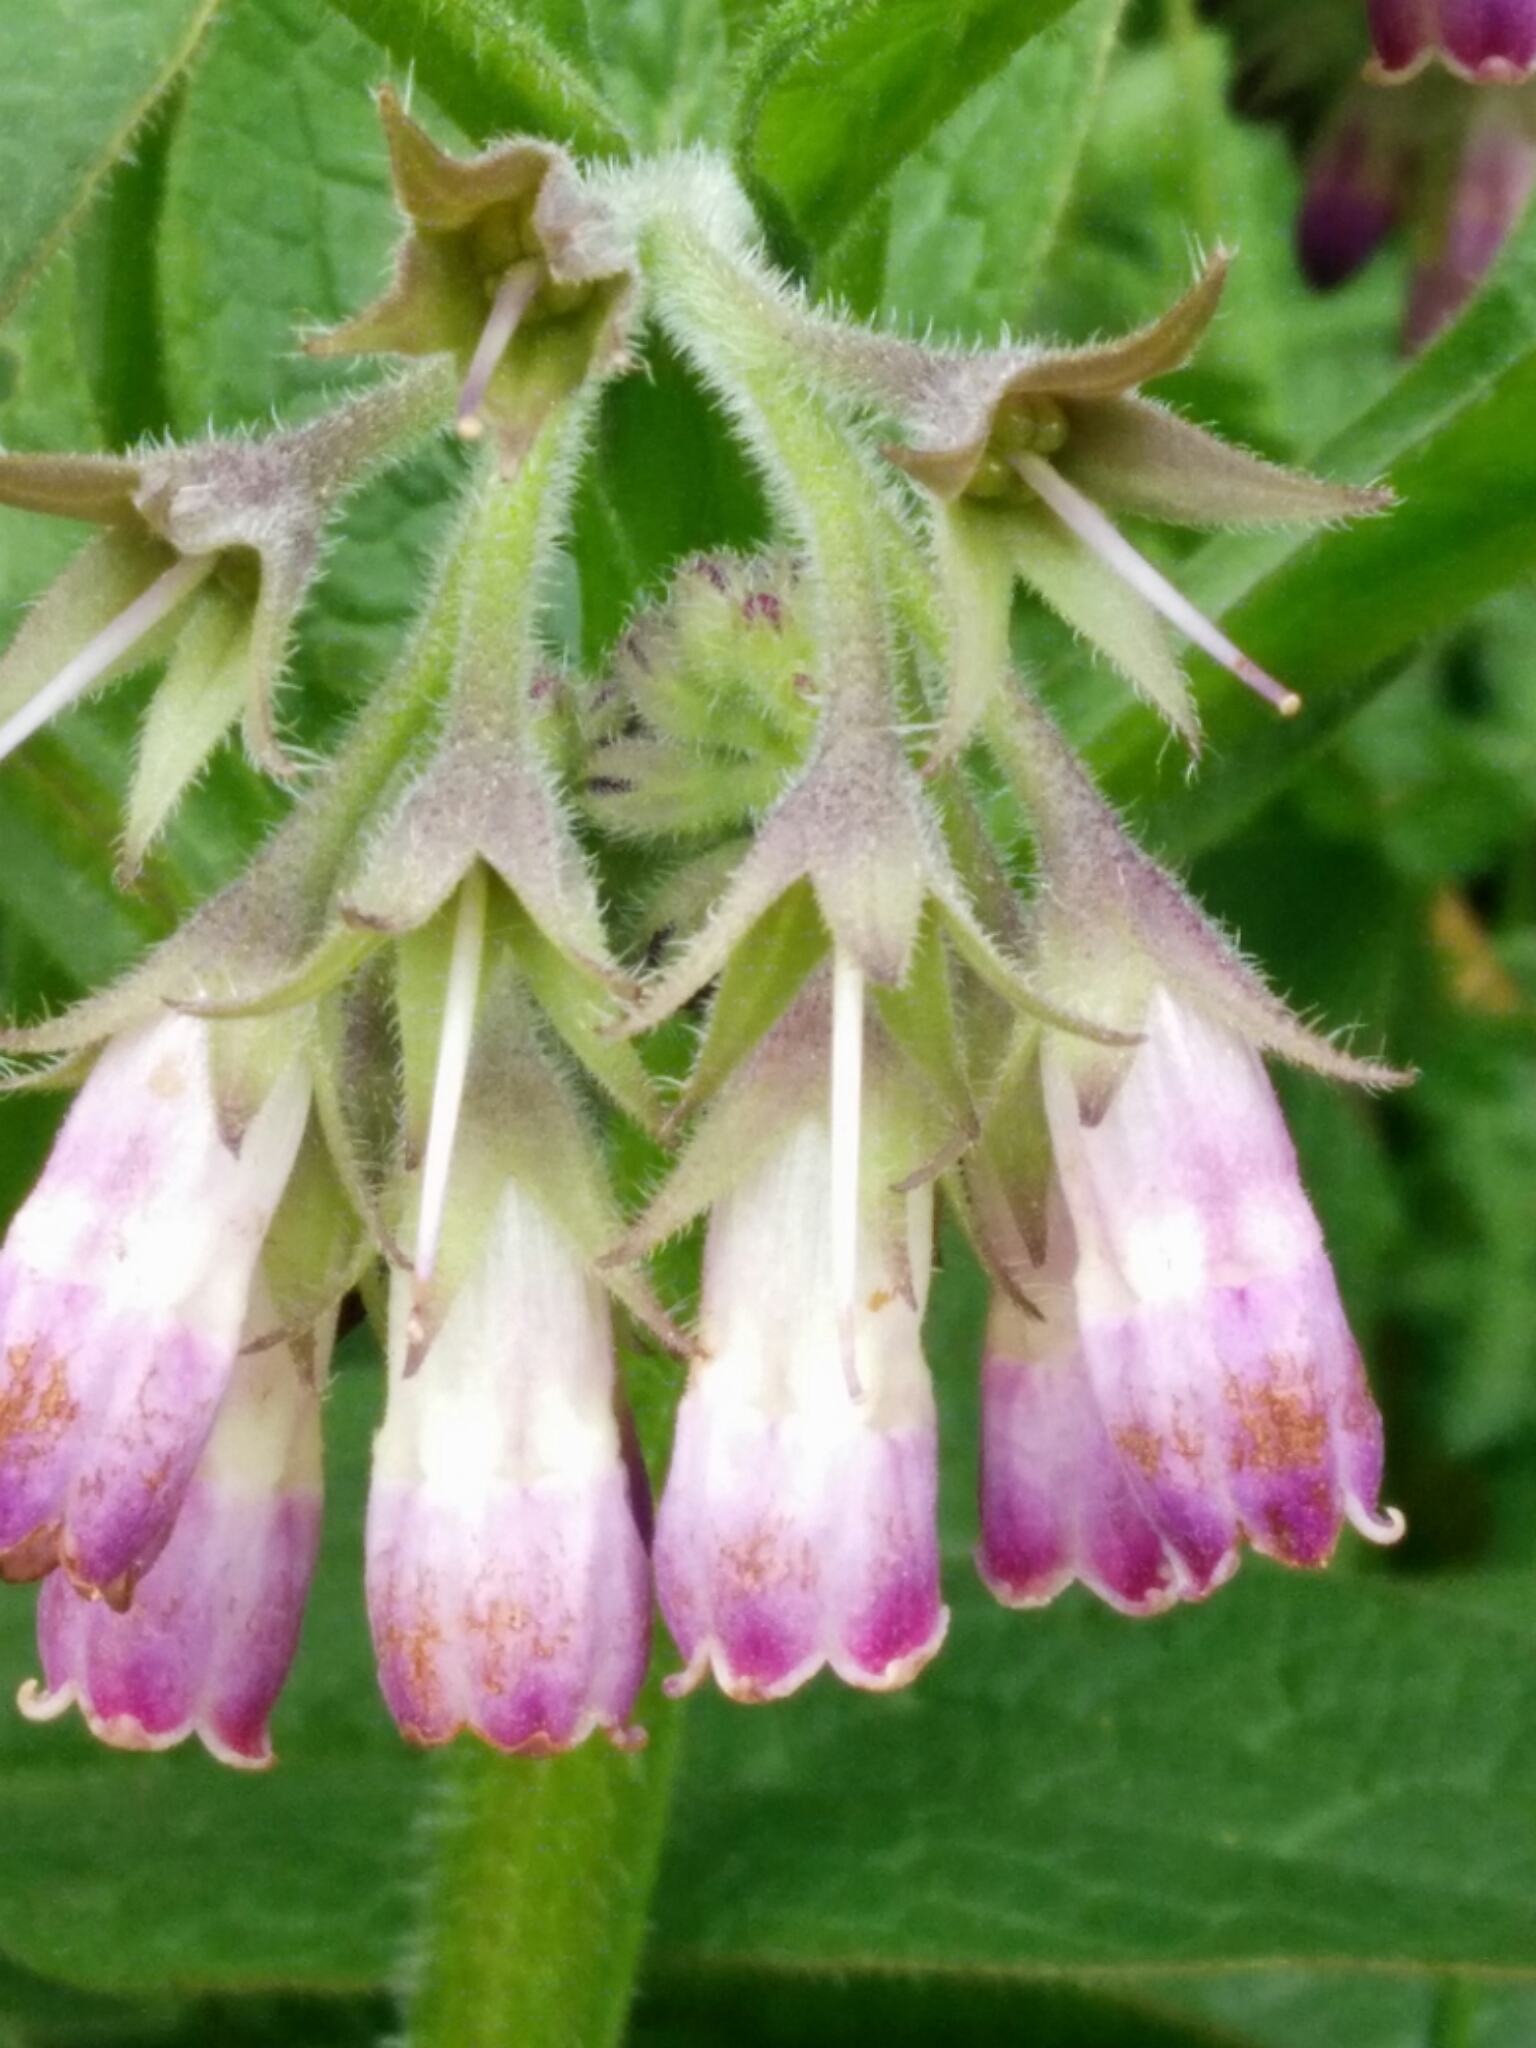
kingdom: Plantae
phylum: Tracheophyta
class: Magnoliopsida
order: Boraginales
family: Boraginaceae
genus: Symphytum
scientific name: Symphytum officinale
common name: Common comfrey
